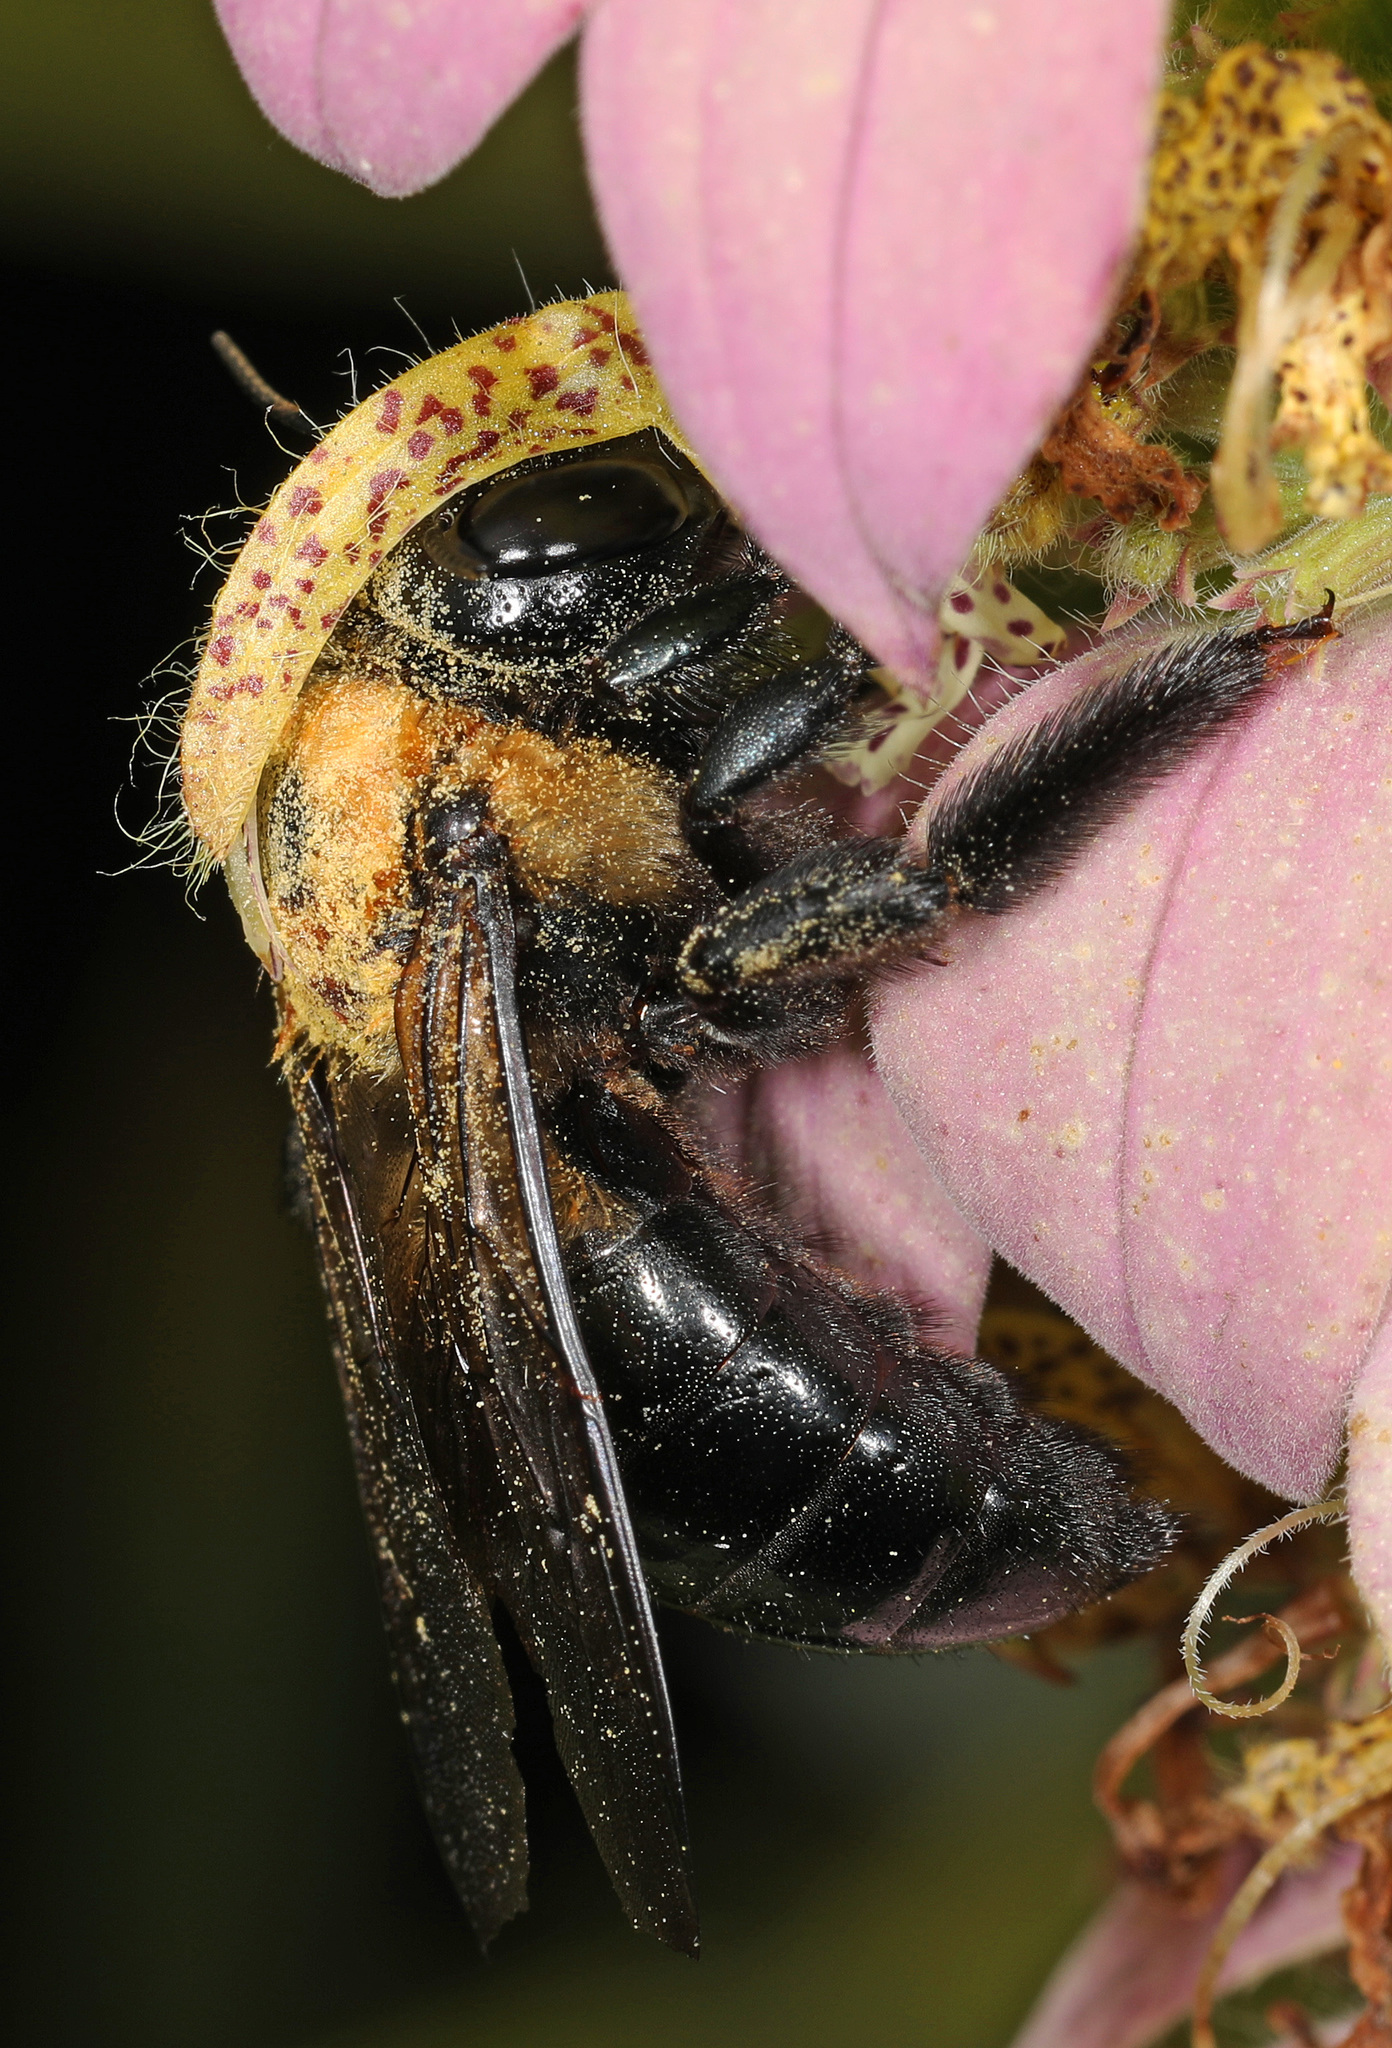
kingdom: Animalia
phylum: Arthropoda
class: Insecta
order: Hymenoptera
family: Apidae
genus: Xylocopa
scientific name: Xylocopa virginica
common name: Carpenter bee
